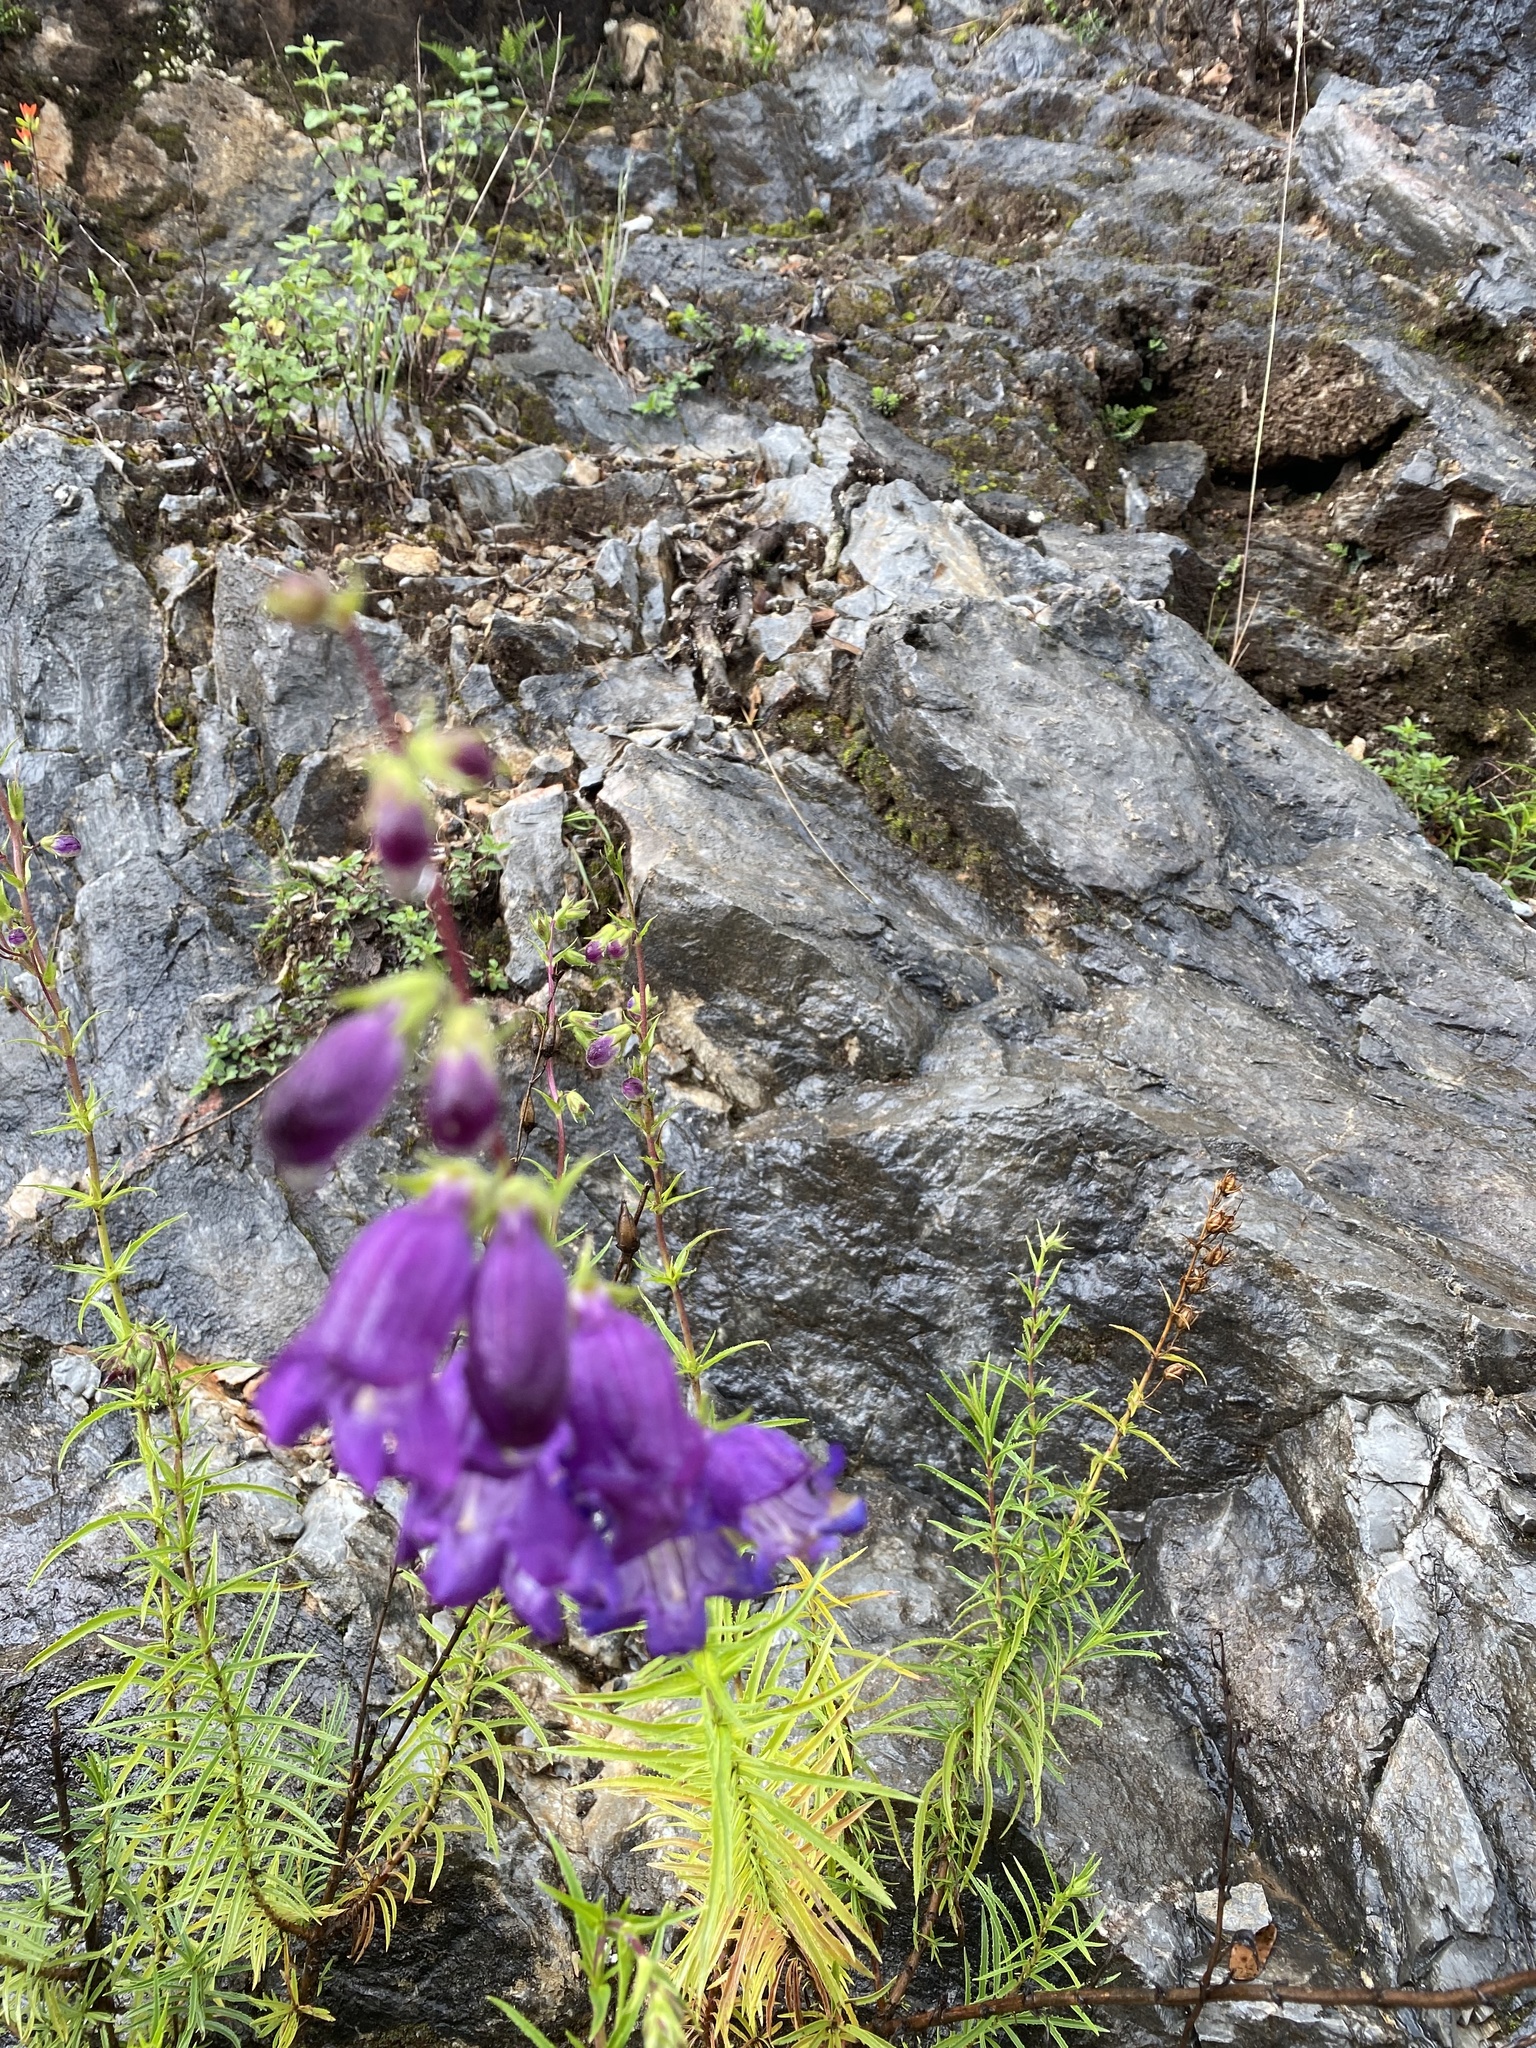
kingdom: Plantae
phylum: Tracheophyta
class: Magnoliopsida
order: Lamiales
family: Plantaginaceae
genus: Penstemon
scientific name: Penstemon campanulatus
